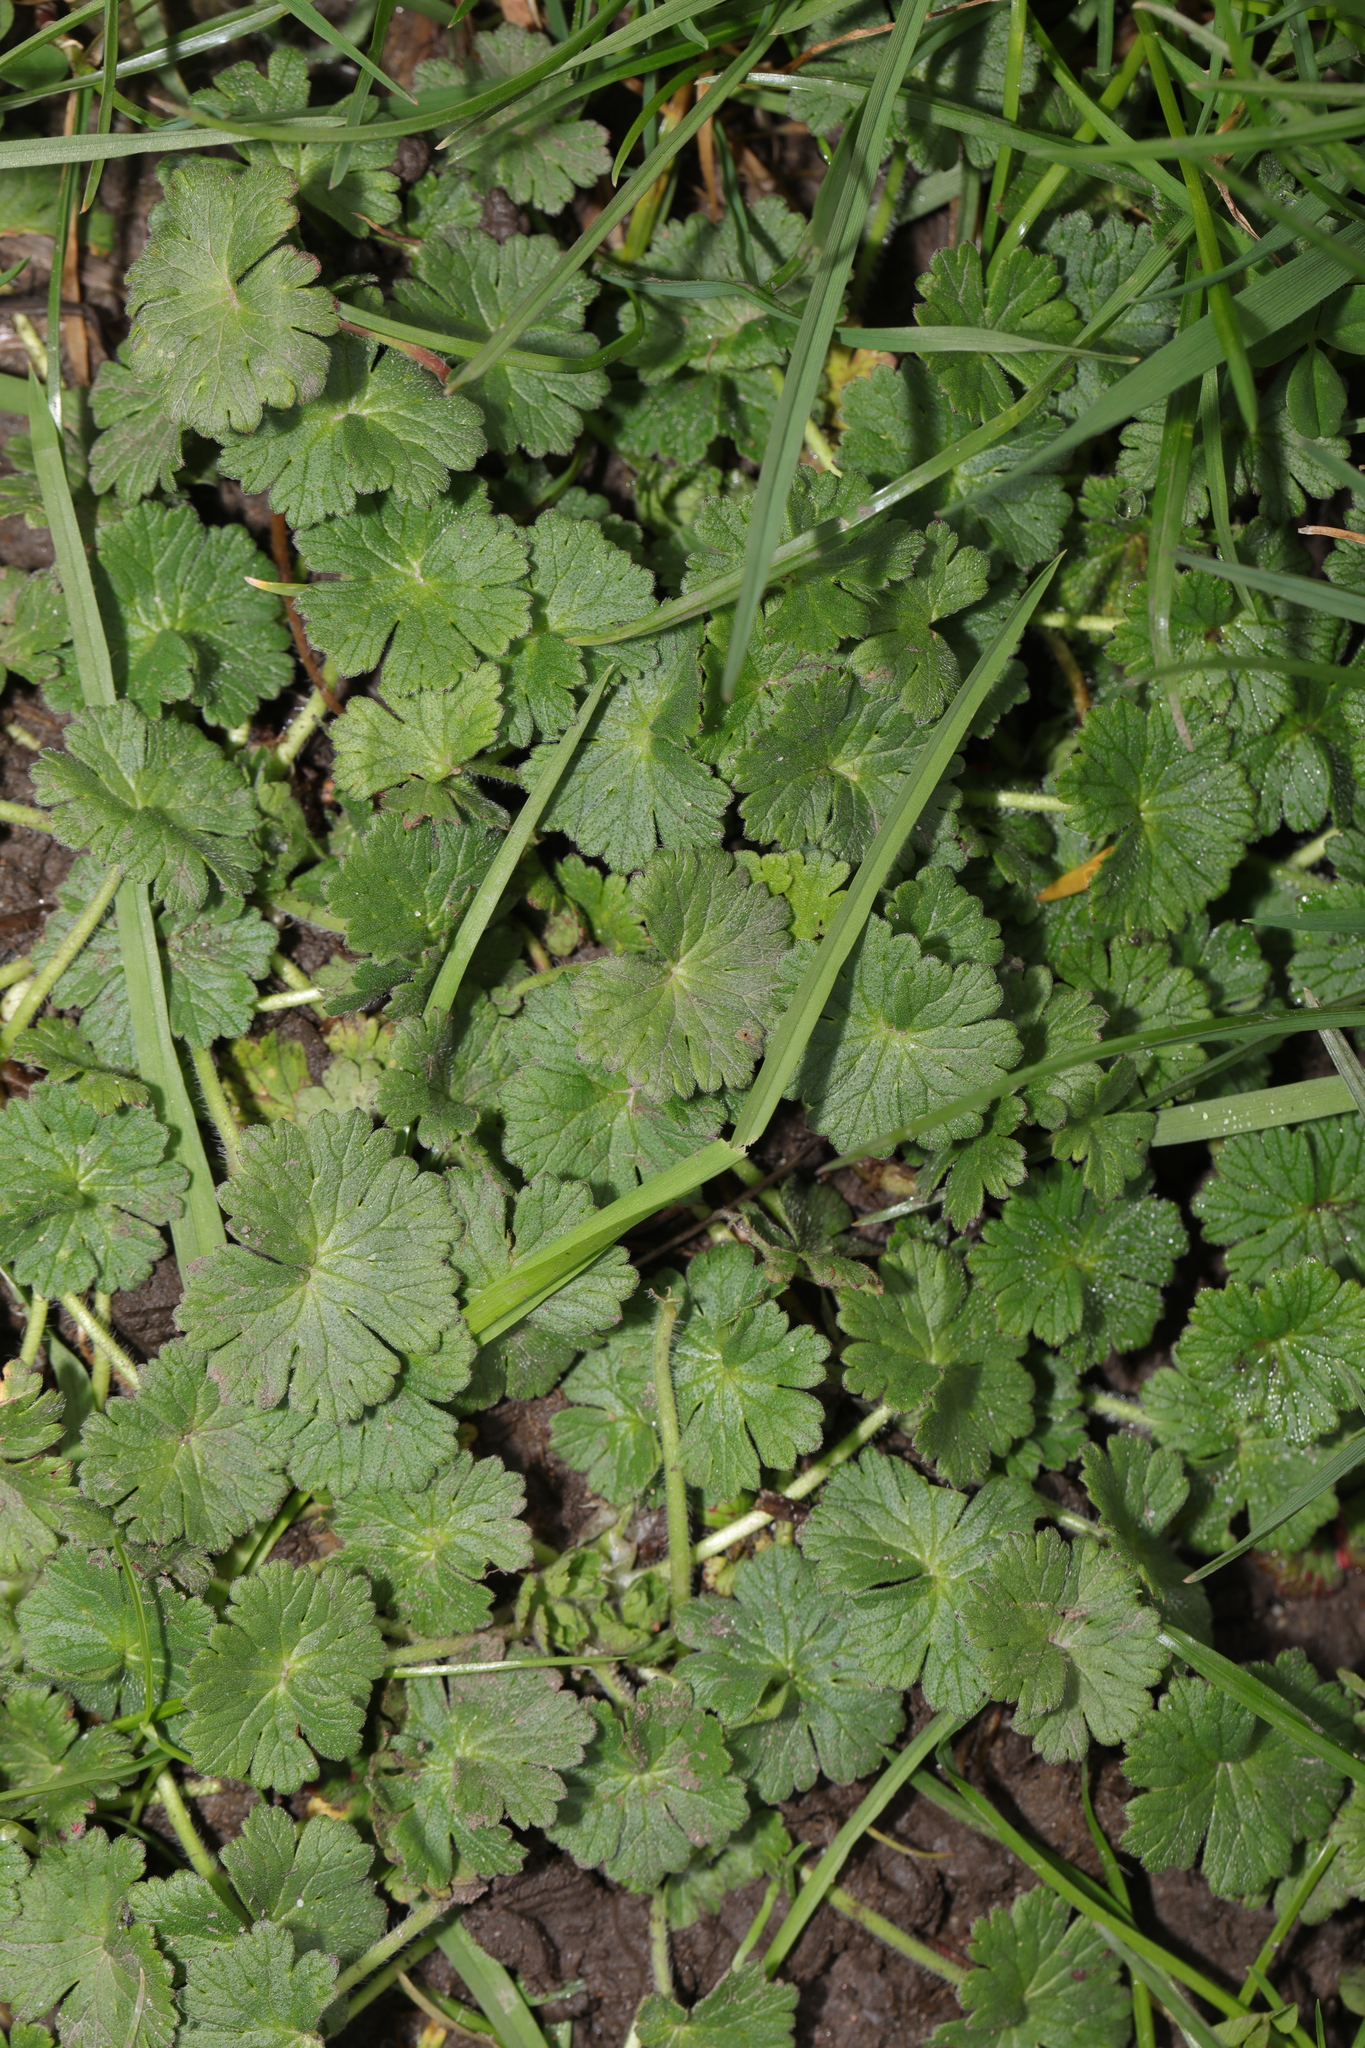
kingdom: Plantae
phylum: Tracheophyta
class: Magnoliopsida
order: Geraniales
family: Geraniaceae
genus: Geranium
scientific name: Geranium molle
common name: Dove's-foot crane's-bill
